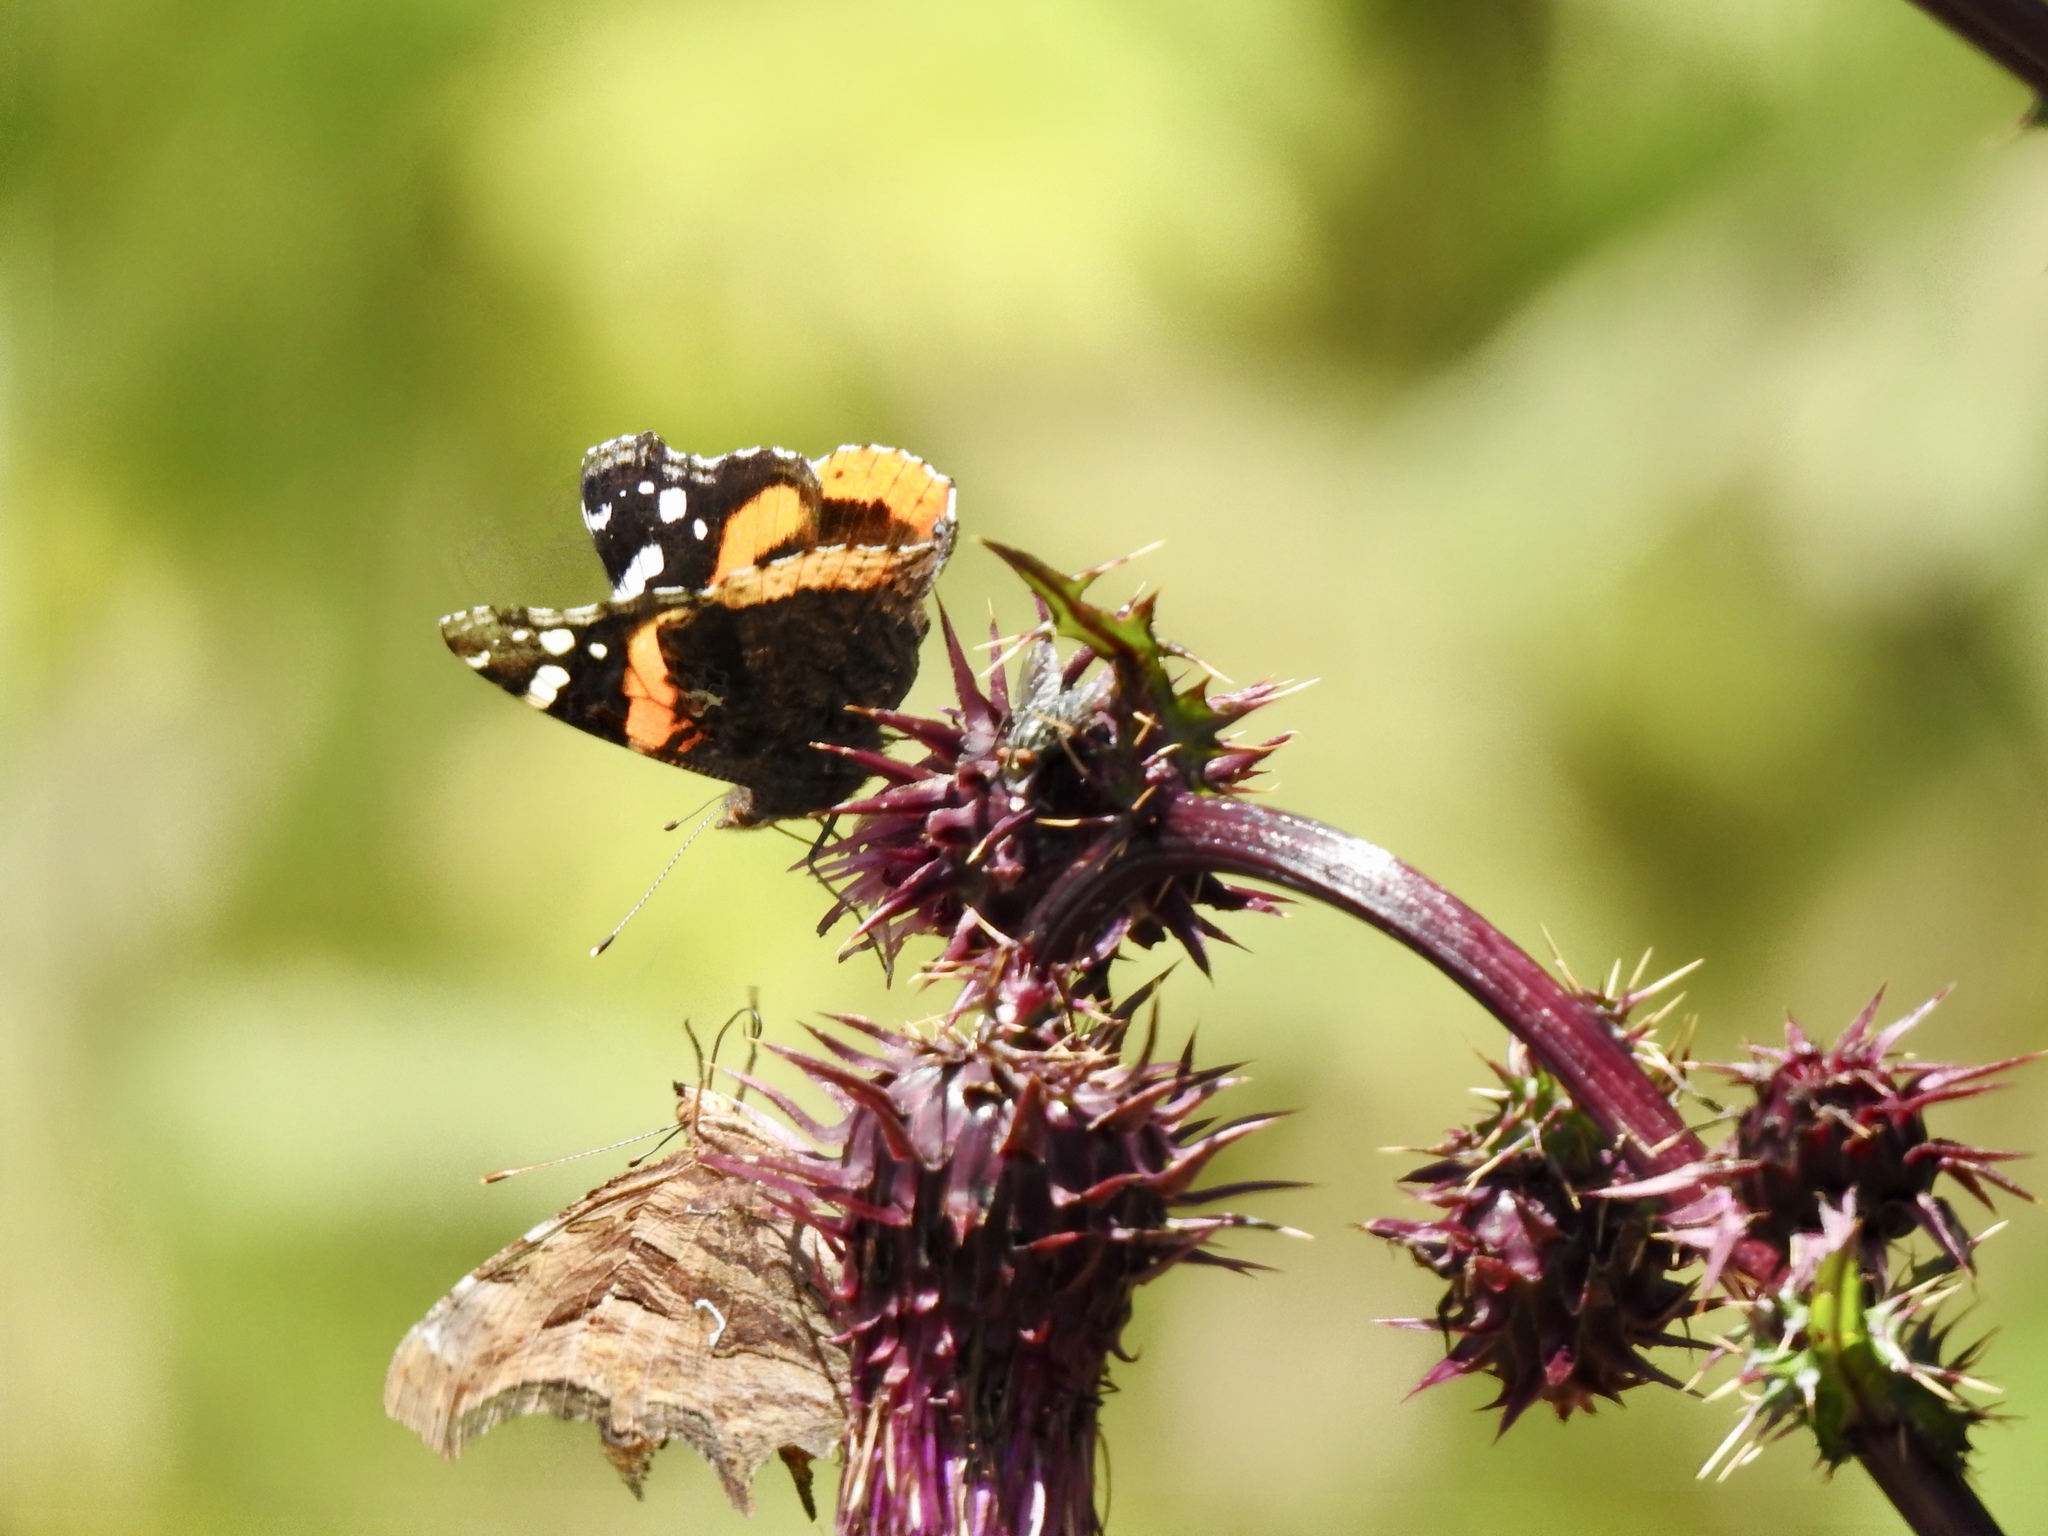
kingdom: Animalia
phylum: Arthropoda
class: Insecta
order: Lepidoptera
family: Nymphalidae
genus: Vanessa
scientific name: Vanessa atalanta
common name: Red admiral
